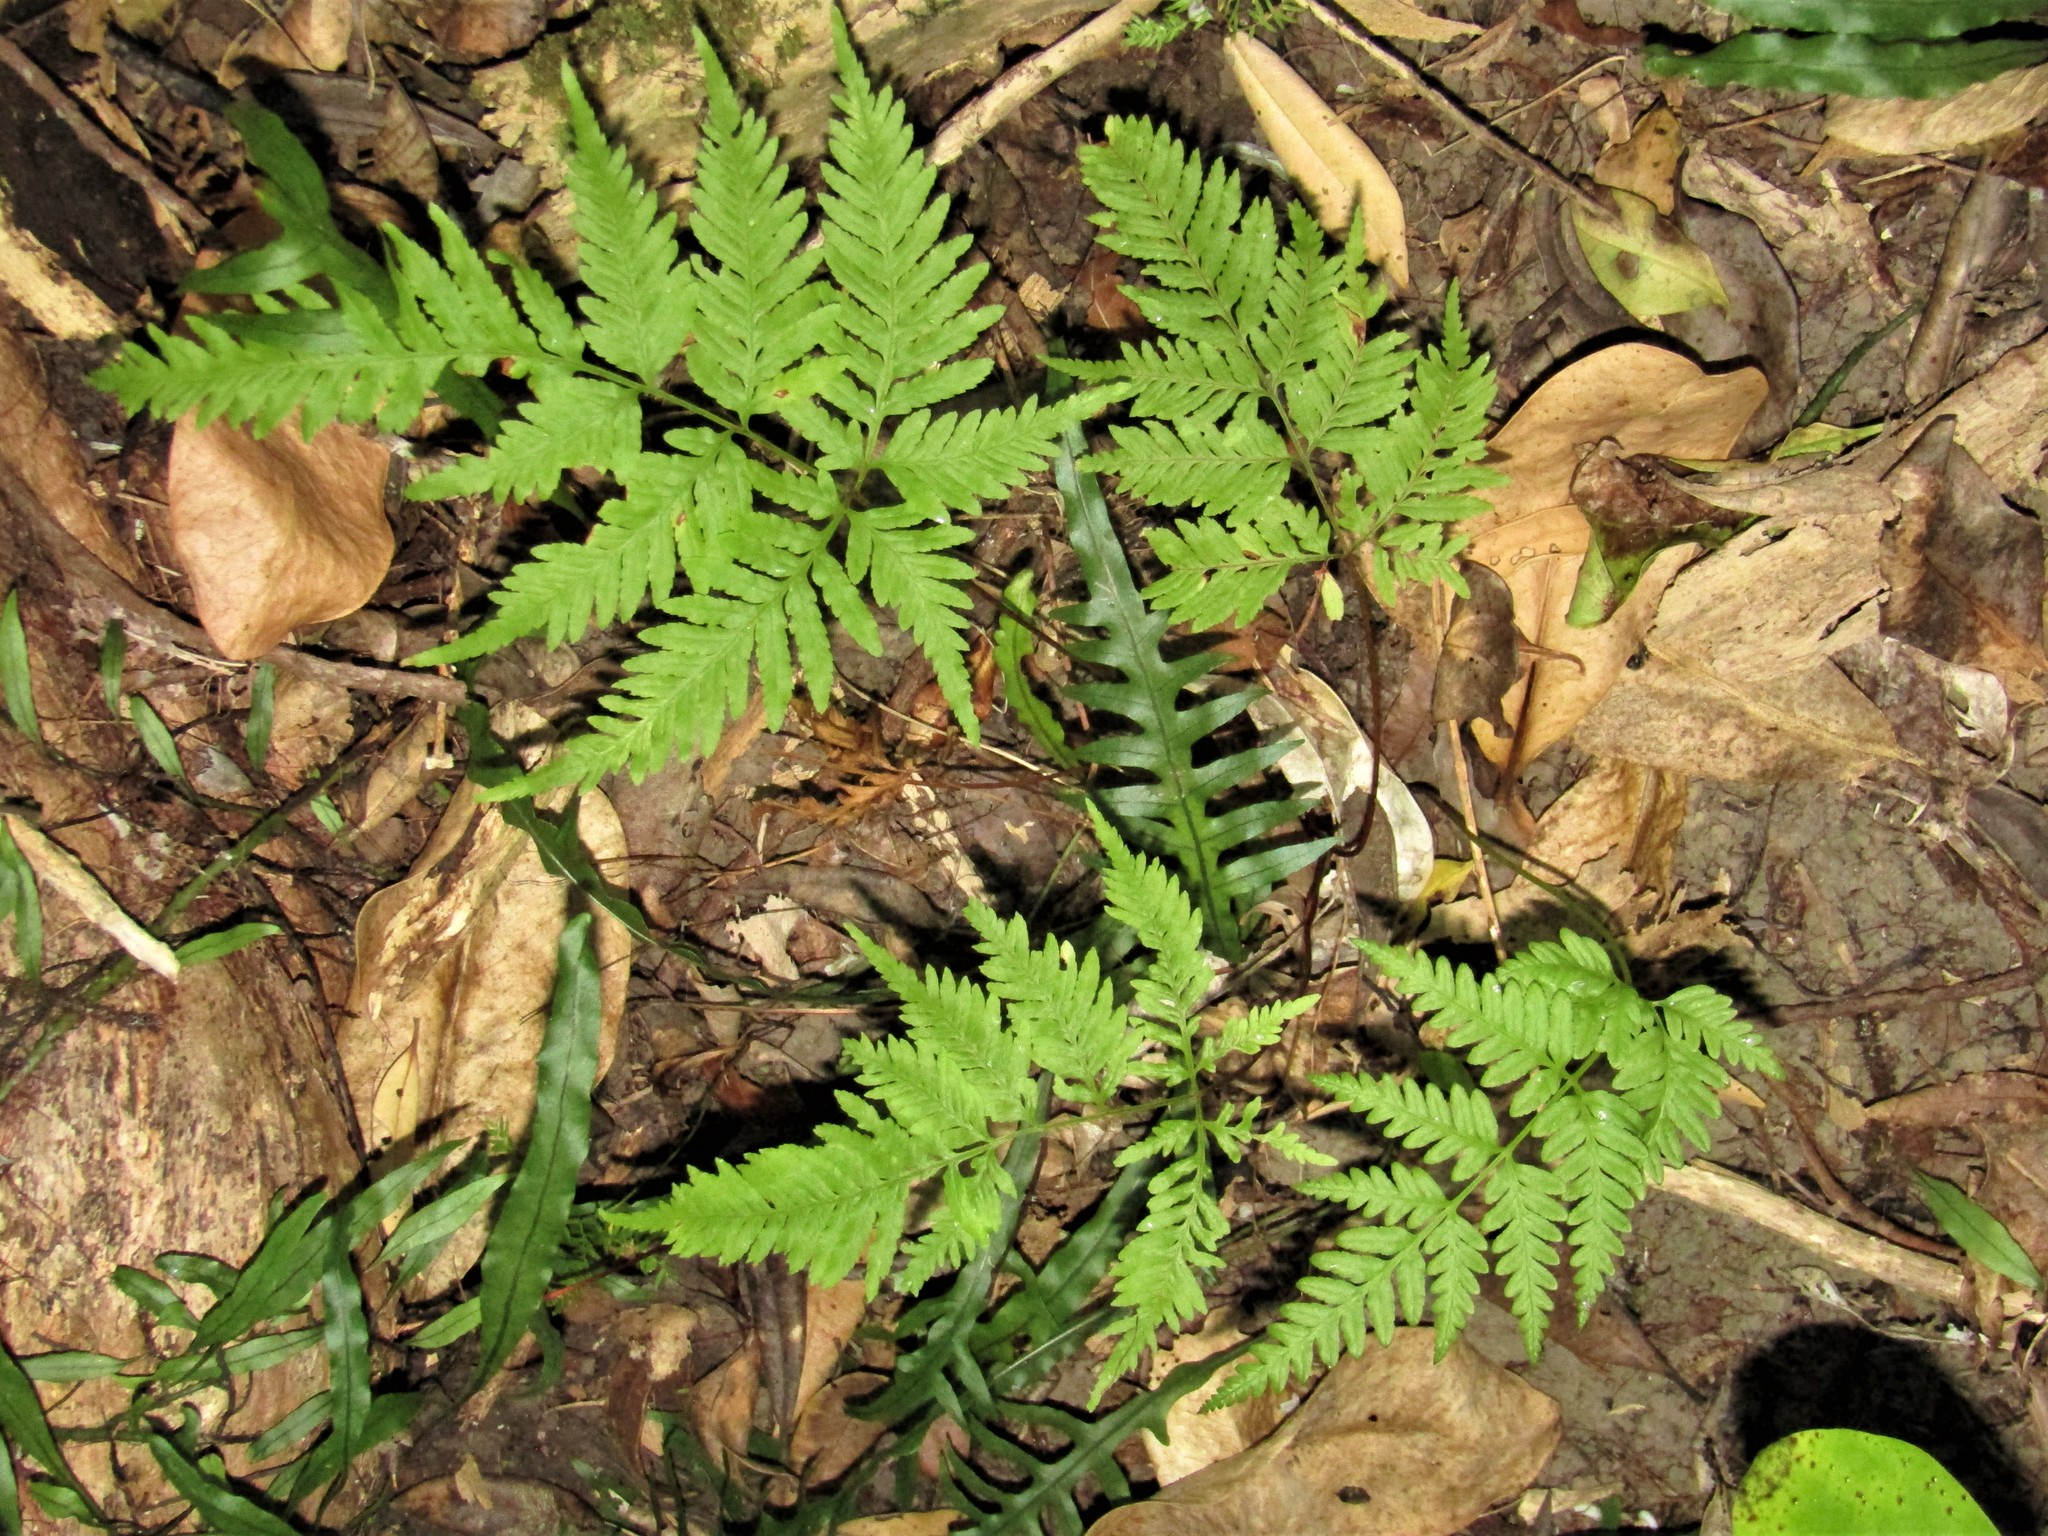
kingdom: Plantae
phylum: Tracheophyta
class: Polypodiopsida
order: Polypodiales
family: Pteridaceae
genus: Pteris
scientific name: Pteris tremula
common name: Australian brake
